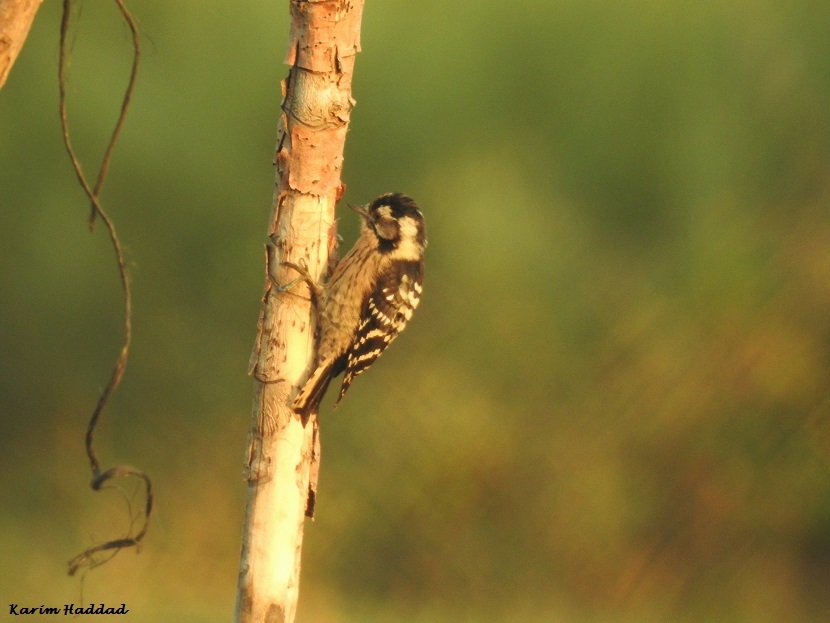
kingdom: Animalia
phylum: Chordata
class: Aves
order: Piciformes
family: Picidae
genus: Dryobates
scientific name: Dryobates minor
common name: Lesser spotted woodpecker
